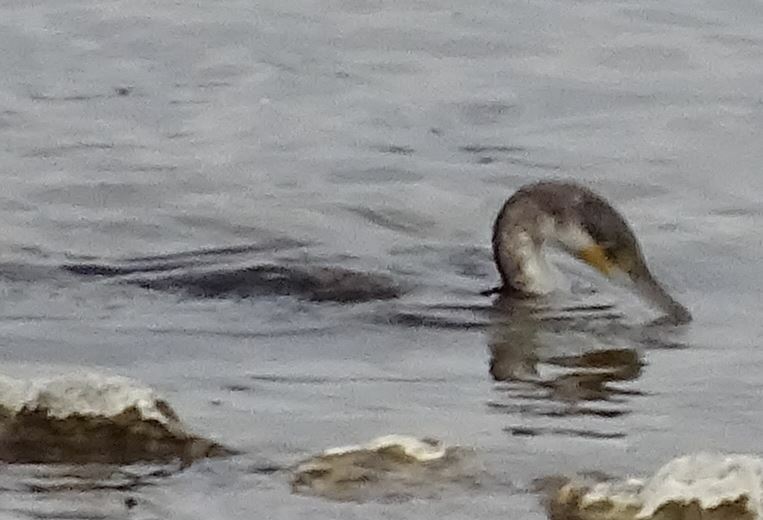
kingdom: Animalia
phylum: Chordata
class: Aves
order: Suliformes
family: Phalacrocoracidae
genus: Phalacrocorax
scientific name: Phalacrocorax carbo
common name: Great cormorant
